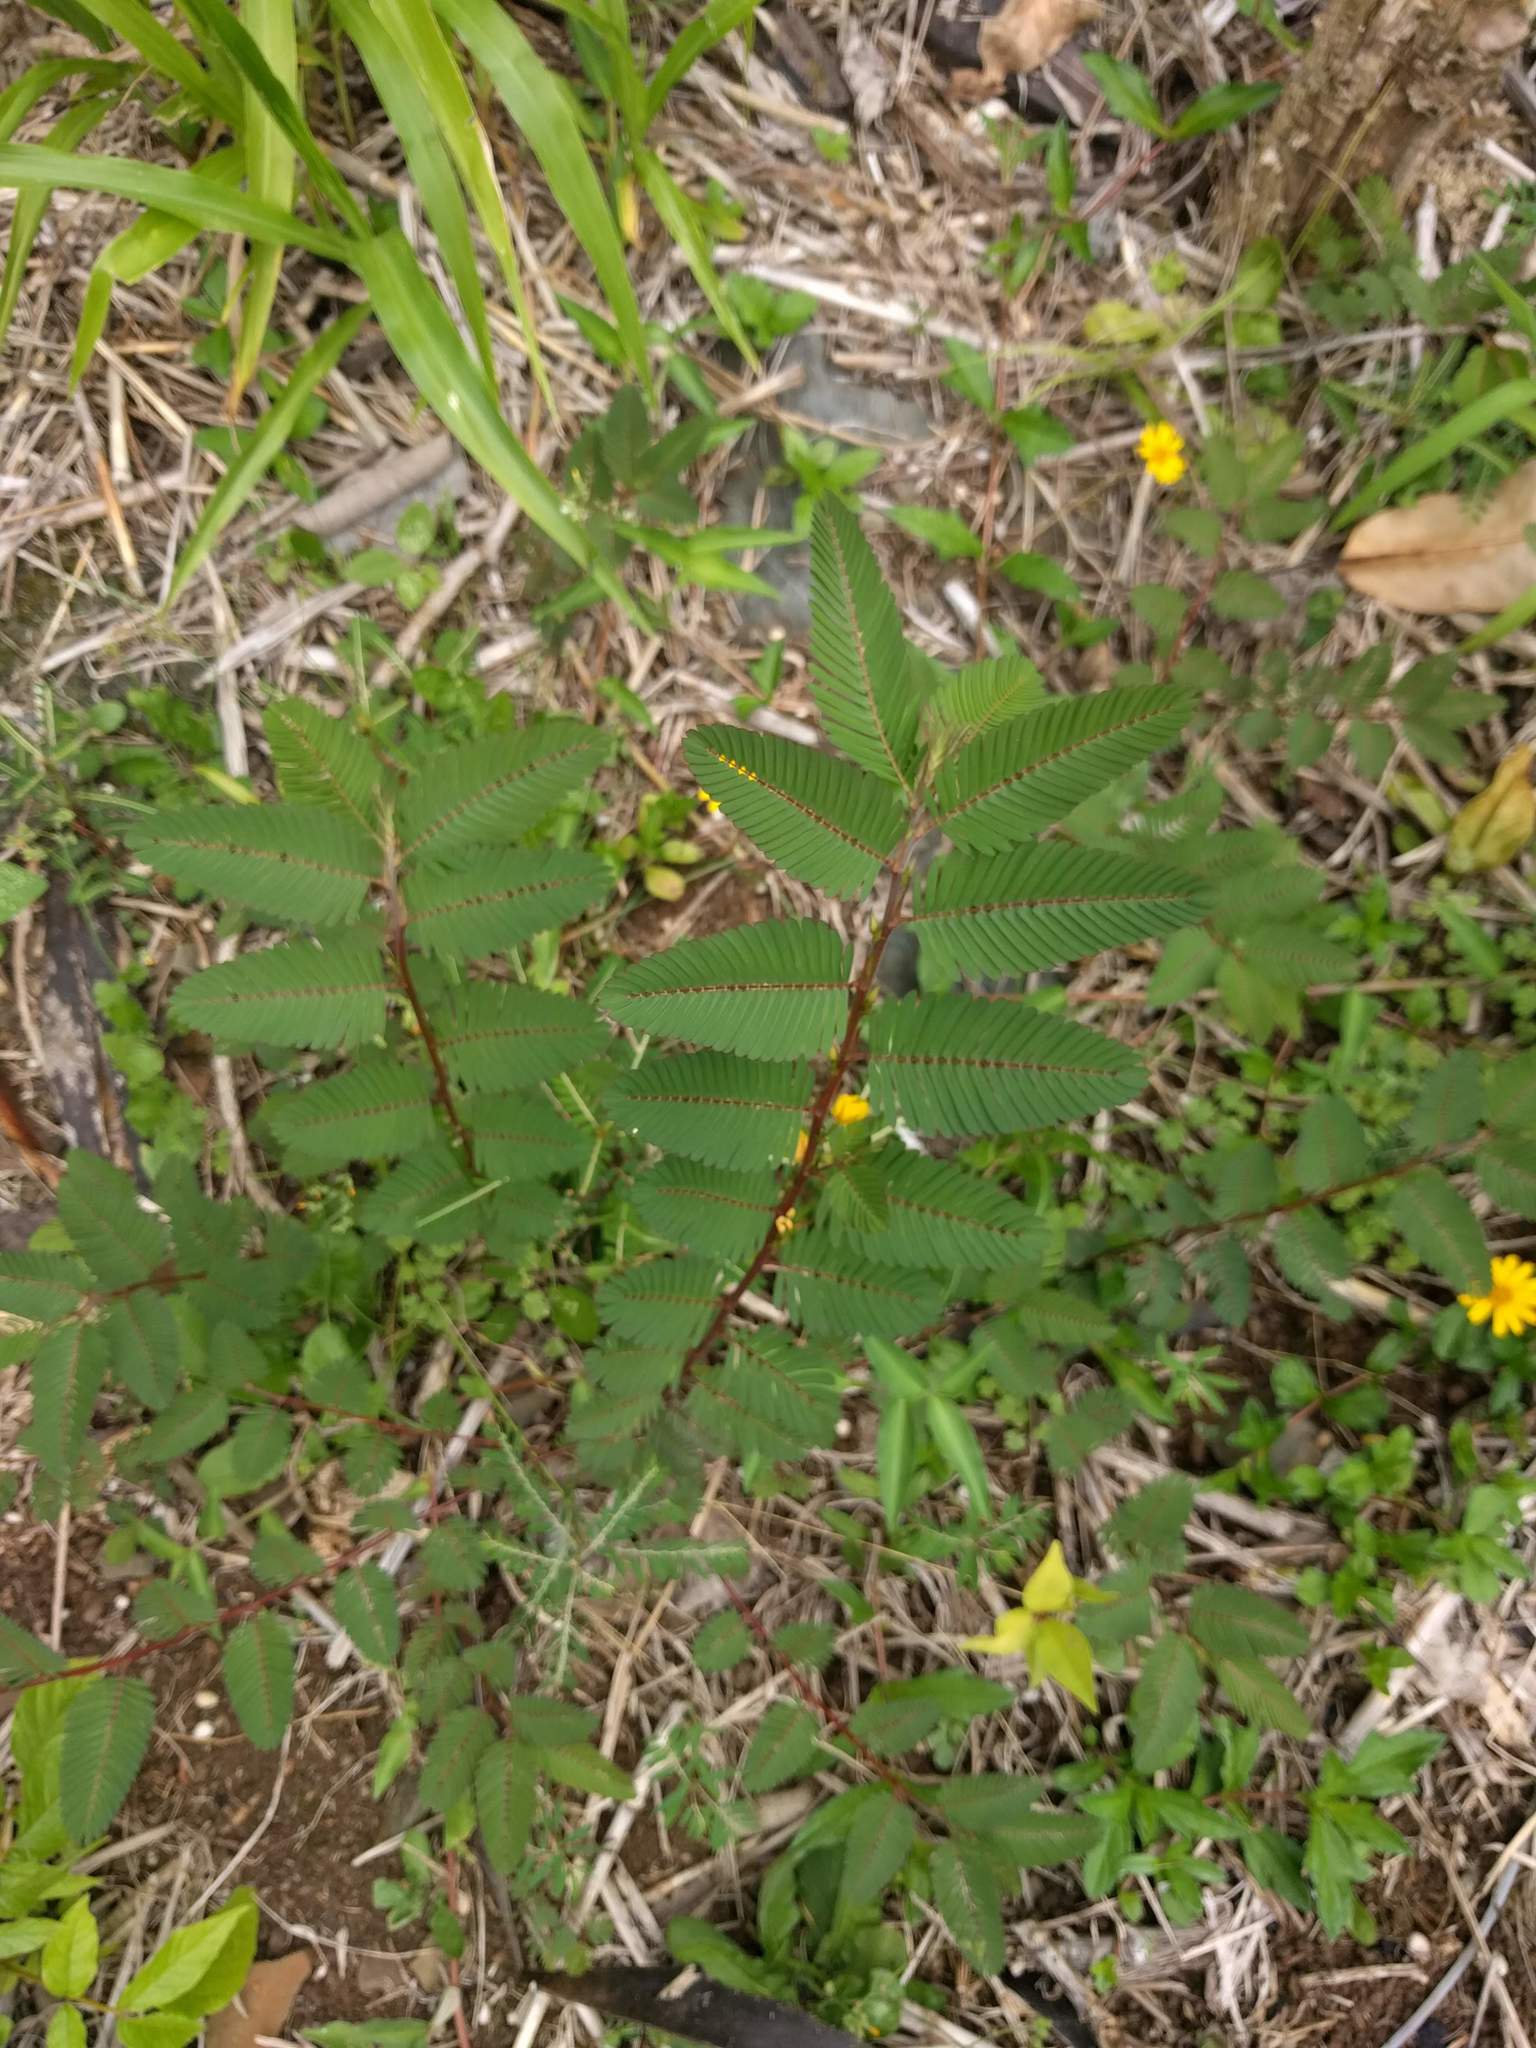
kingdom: Plantae
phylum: Tracheophyta
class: Magnoliopsida
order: Fabales
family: Fabaceae
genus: Chamaecrista
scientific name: Chamaecrista nictitans
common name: Sensitive cassia
